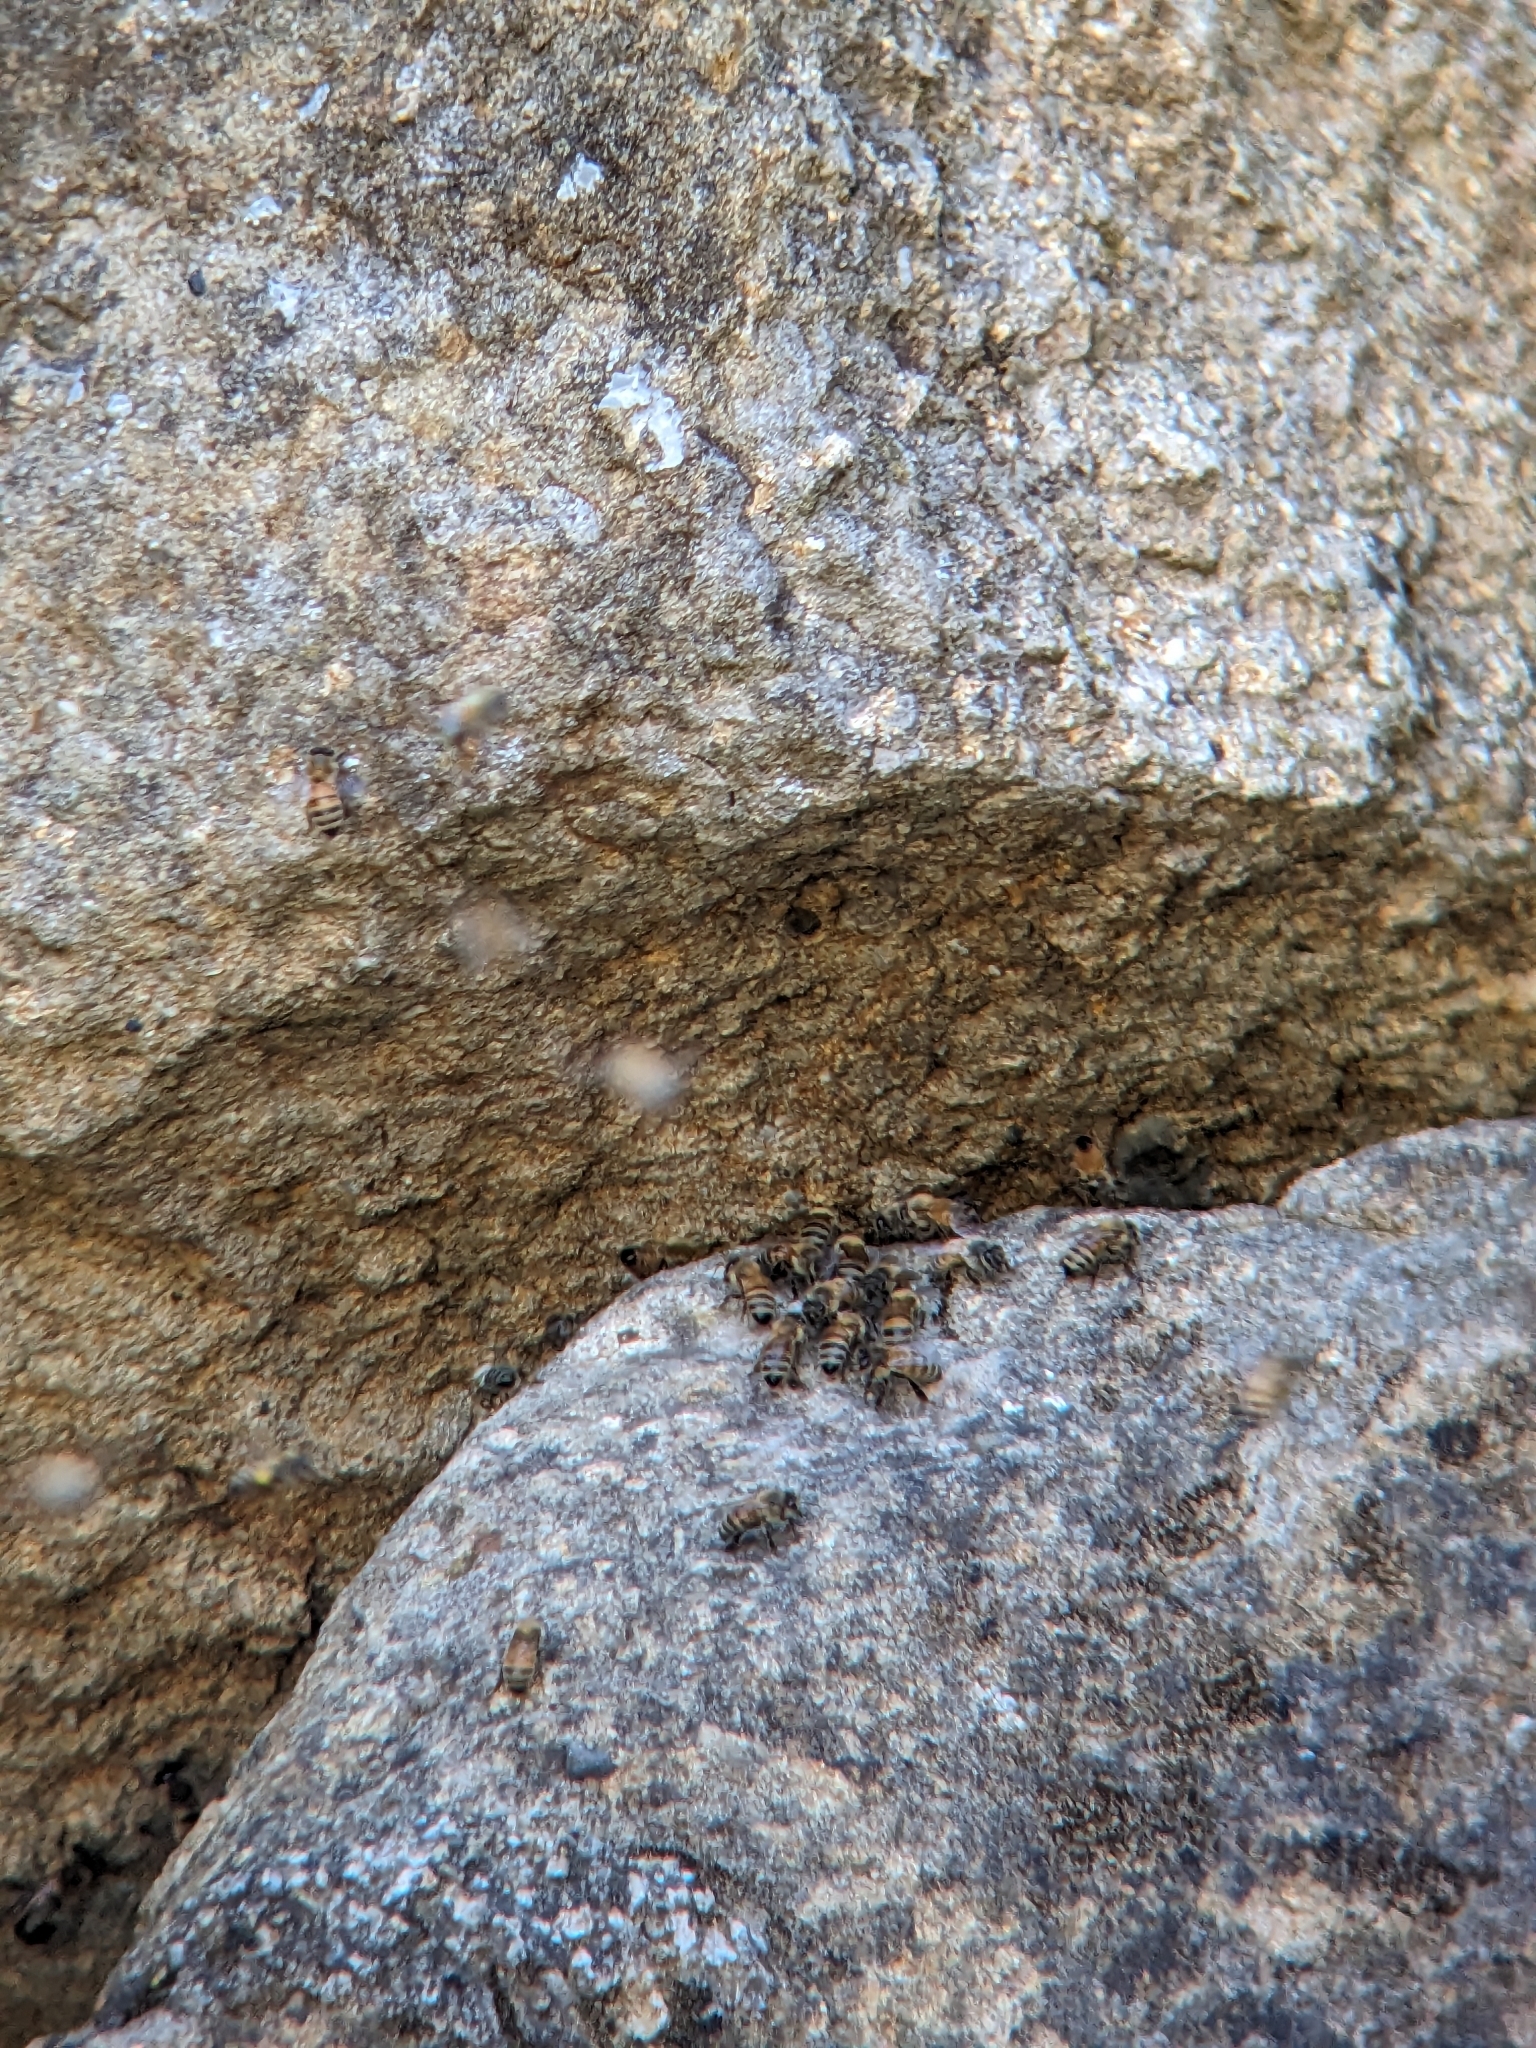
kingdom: Animalia
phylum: Arthropoda
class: Insecta
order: Hymenoptera
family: Apidae
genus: Apis
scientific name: Apis mellifera
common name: Honey bee
